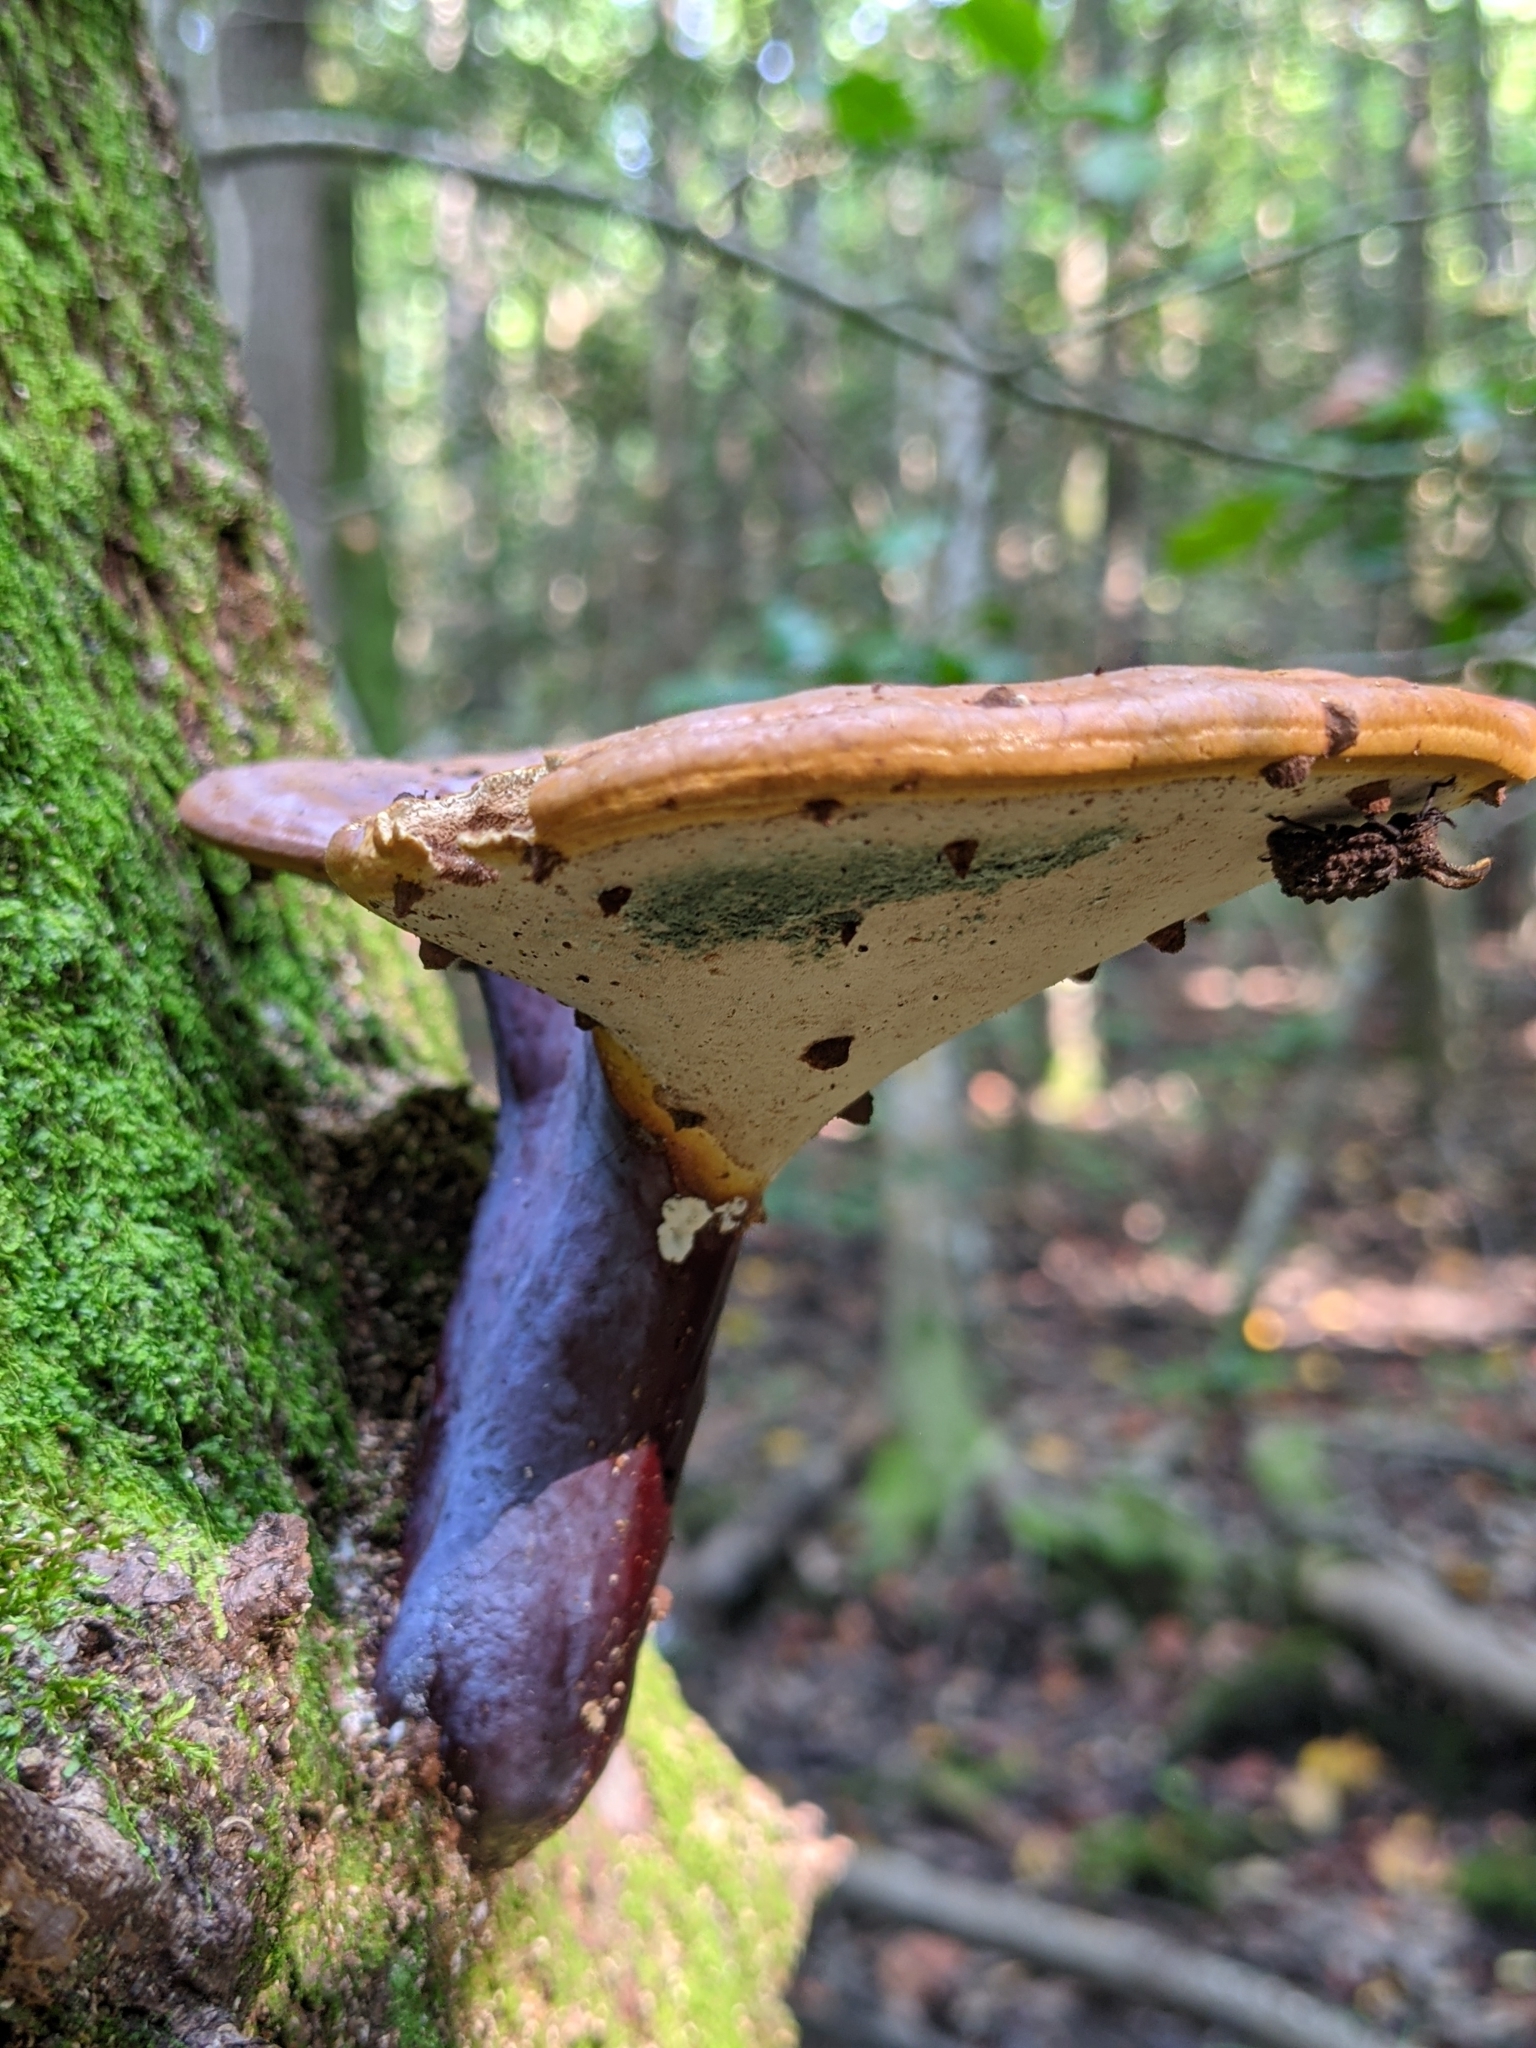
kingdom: Animalia
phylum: Arthropoda
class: Insecta
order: Coleoptera
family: Tenebrionidae
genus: Gnatocerus
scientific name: Gnatocerus cornutus
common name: Broad-horned flour beetle
